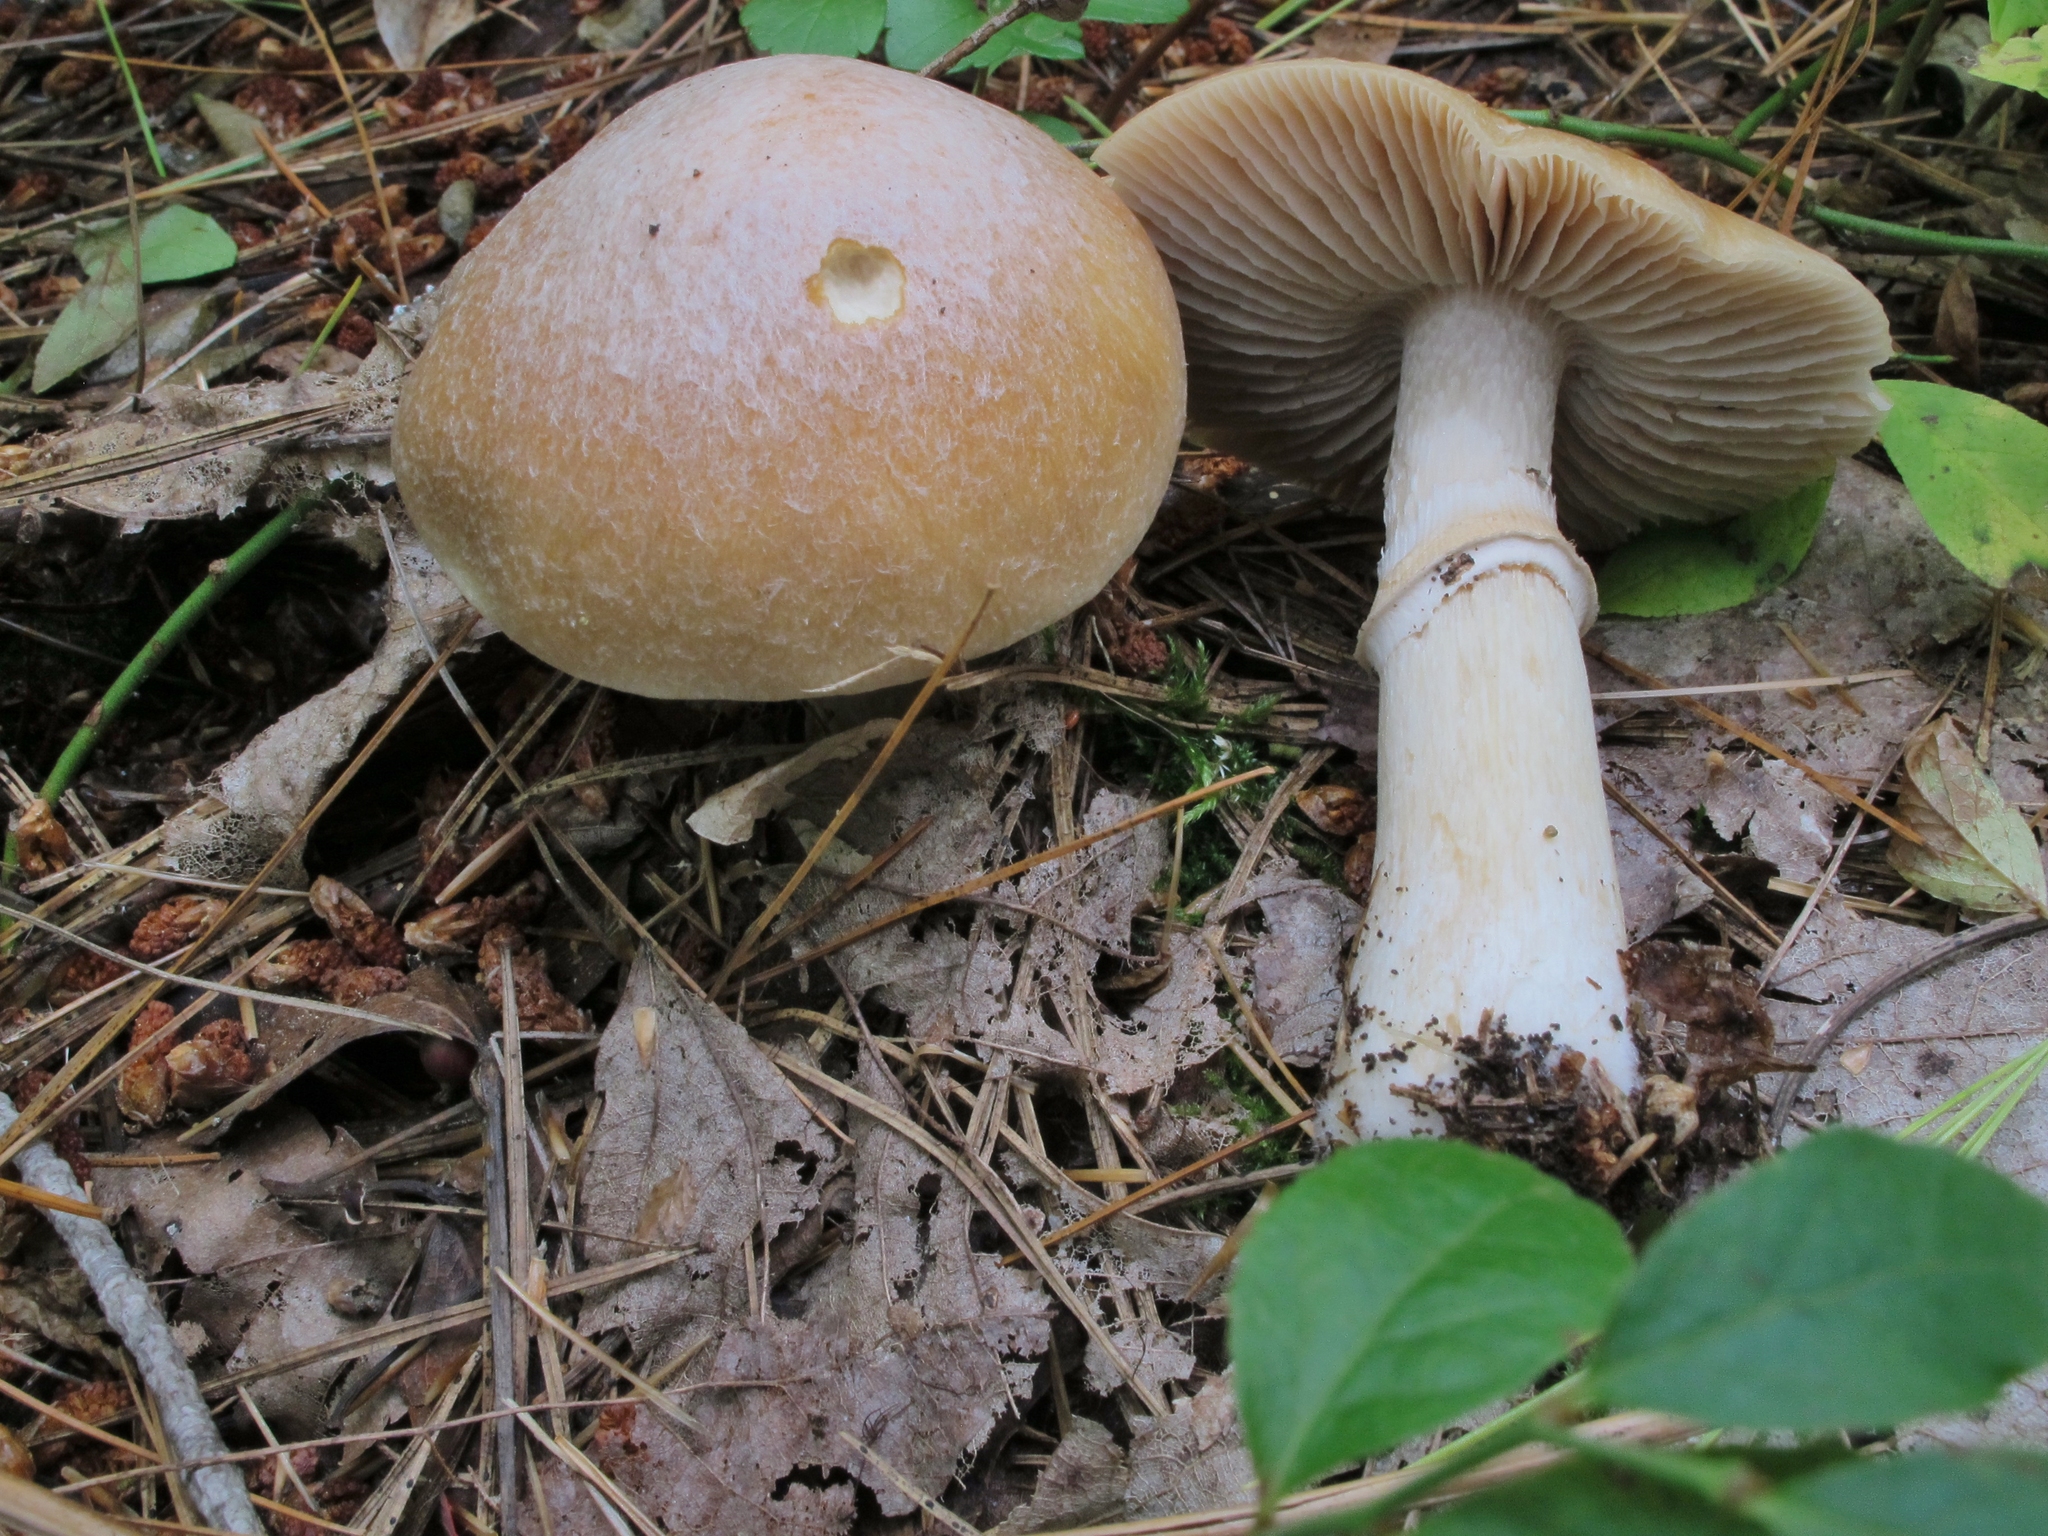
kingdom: Fungi
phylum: Basidiomycota
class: Agaricomycetes
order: Agaricales
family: Cortinariaceae
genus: Cortinarius
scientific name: Cortinarius caperatus
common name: The gypsy
